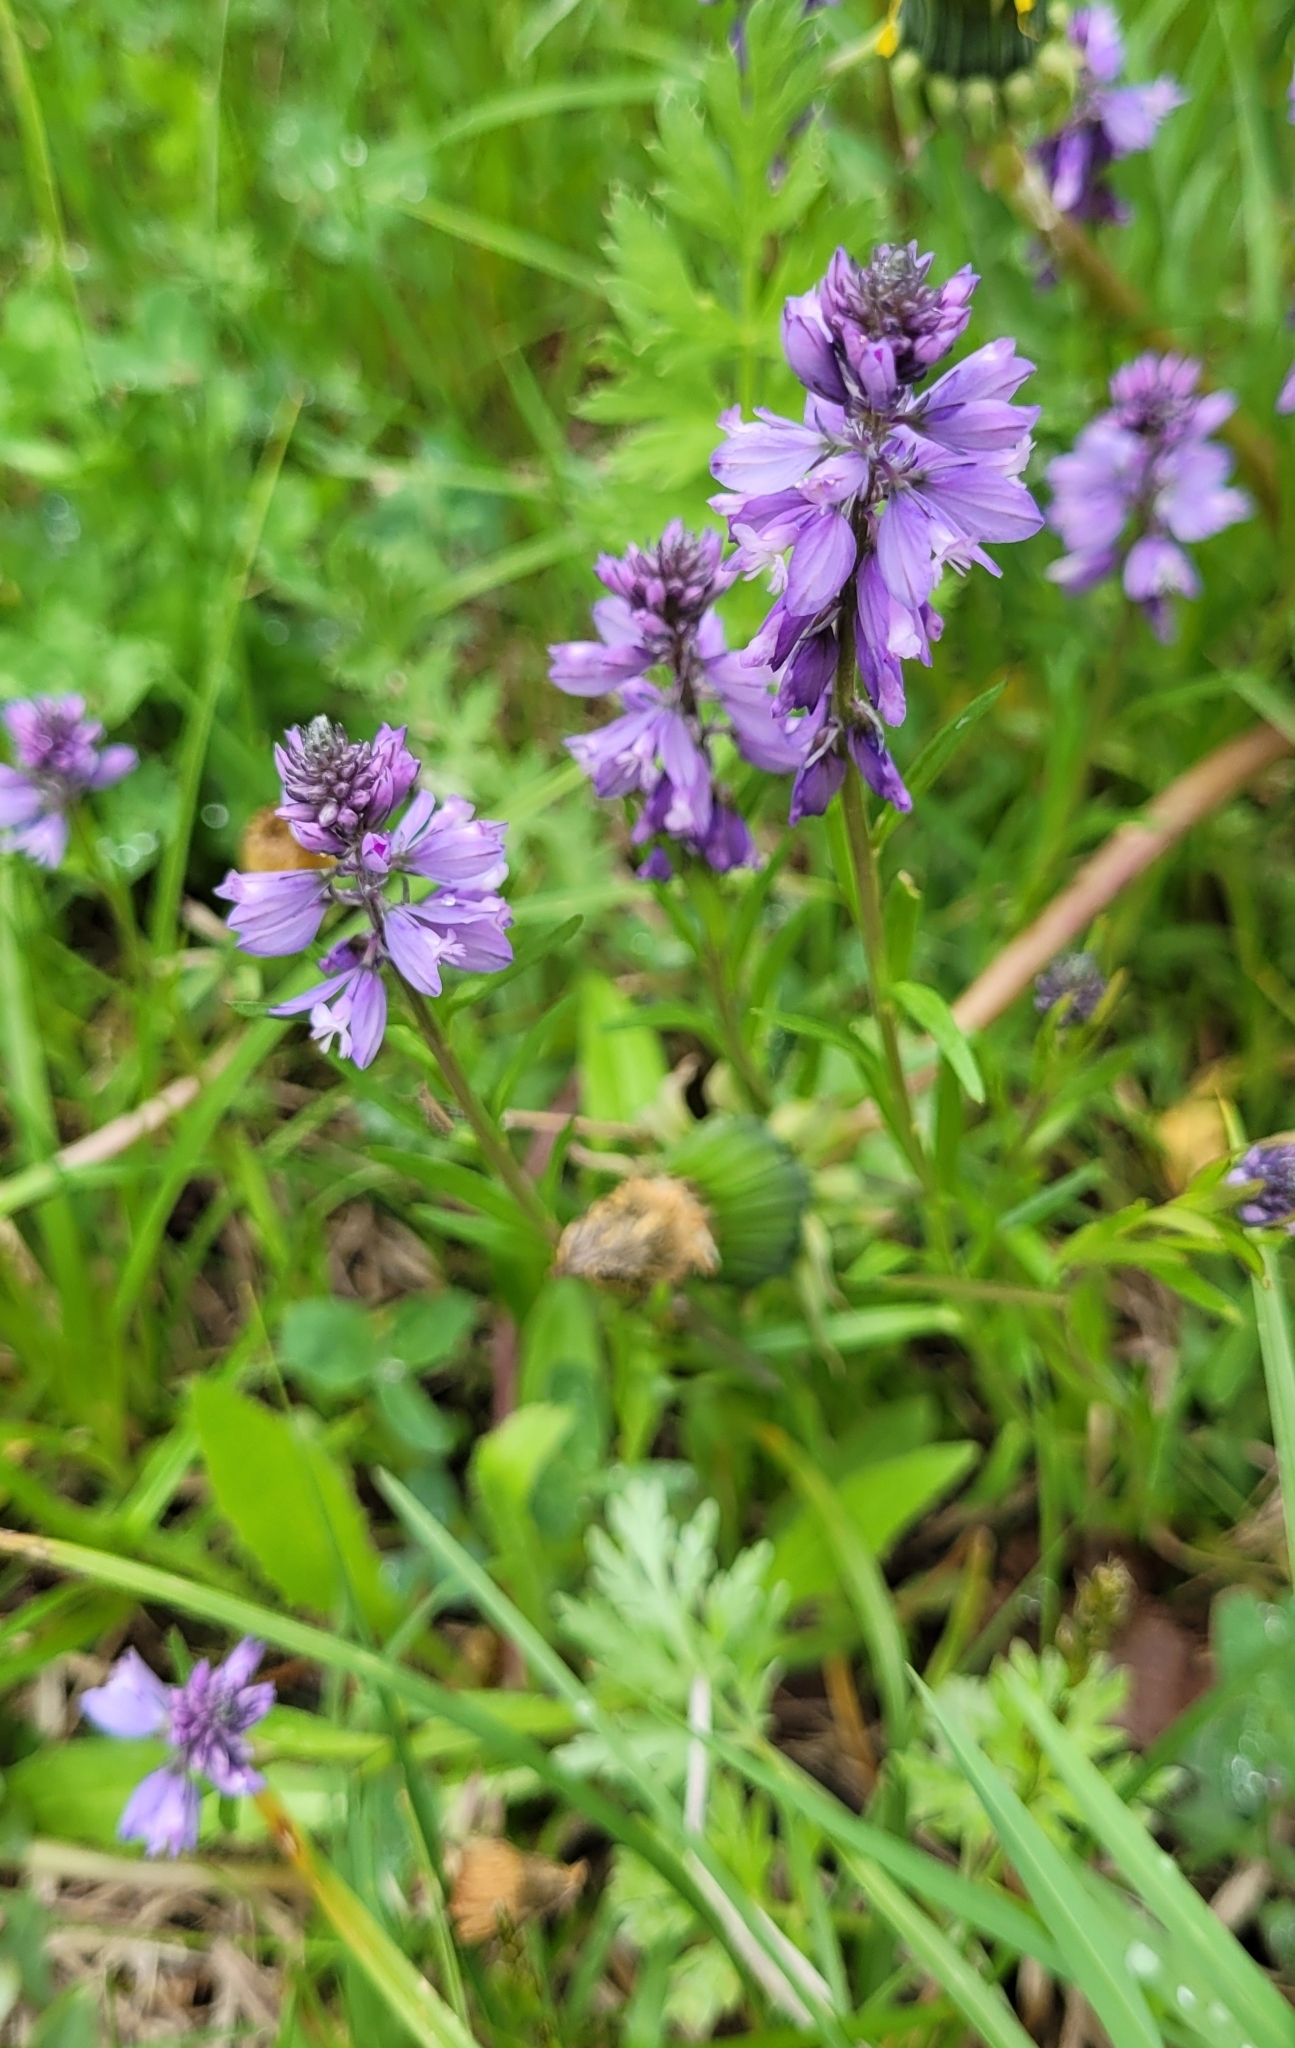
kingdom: Plantae
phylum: Tracheophyta
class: Magnoliopsida
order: Fabales
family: Polygalaceae
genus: Polygala
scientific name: Polygala comosa
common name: Tufted milkwort
